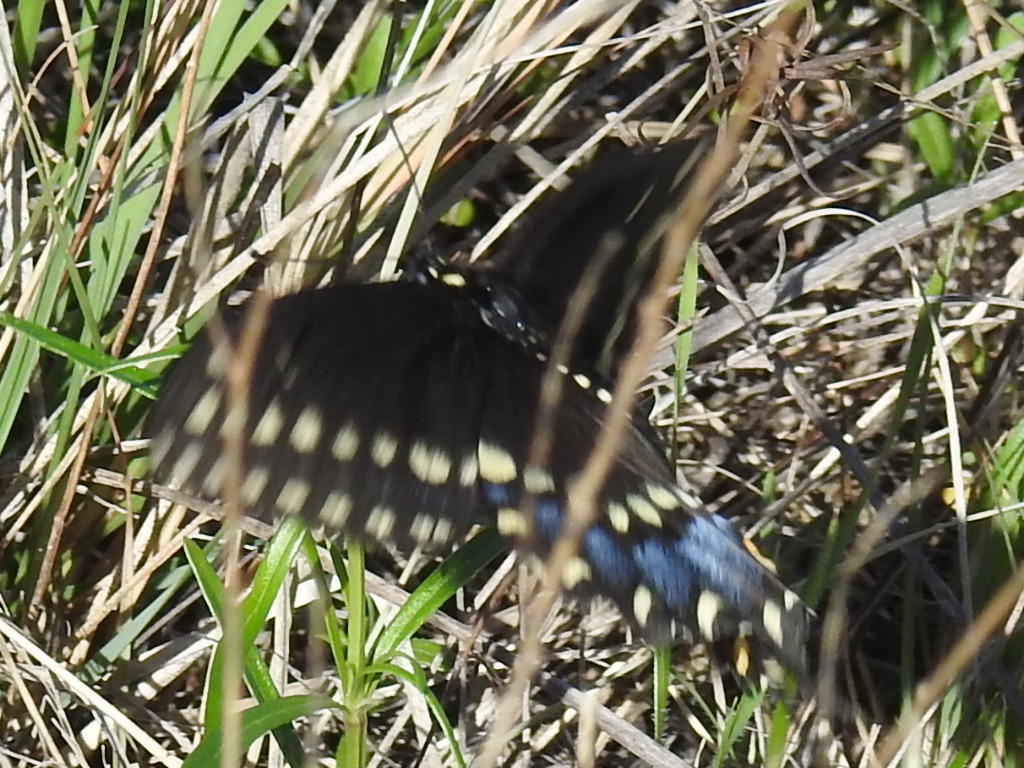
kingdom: Animalia
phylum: Arthropoda
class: Insecta
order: Lepidoptera
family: Papilionidae
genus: Papilio
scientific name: Papilio polyxenes
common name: Black swallowtail
